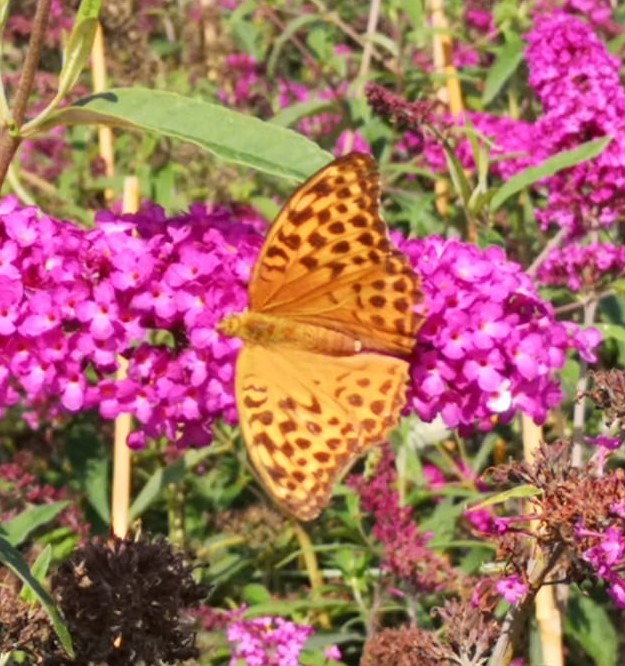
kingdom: Animalia
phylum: Arthropoda
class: Insecta
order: Lepidoptera
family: Nymphalidae
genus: Argynnis
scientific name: Argynnis paphia
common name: Silver-washed fritillary
